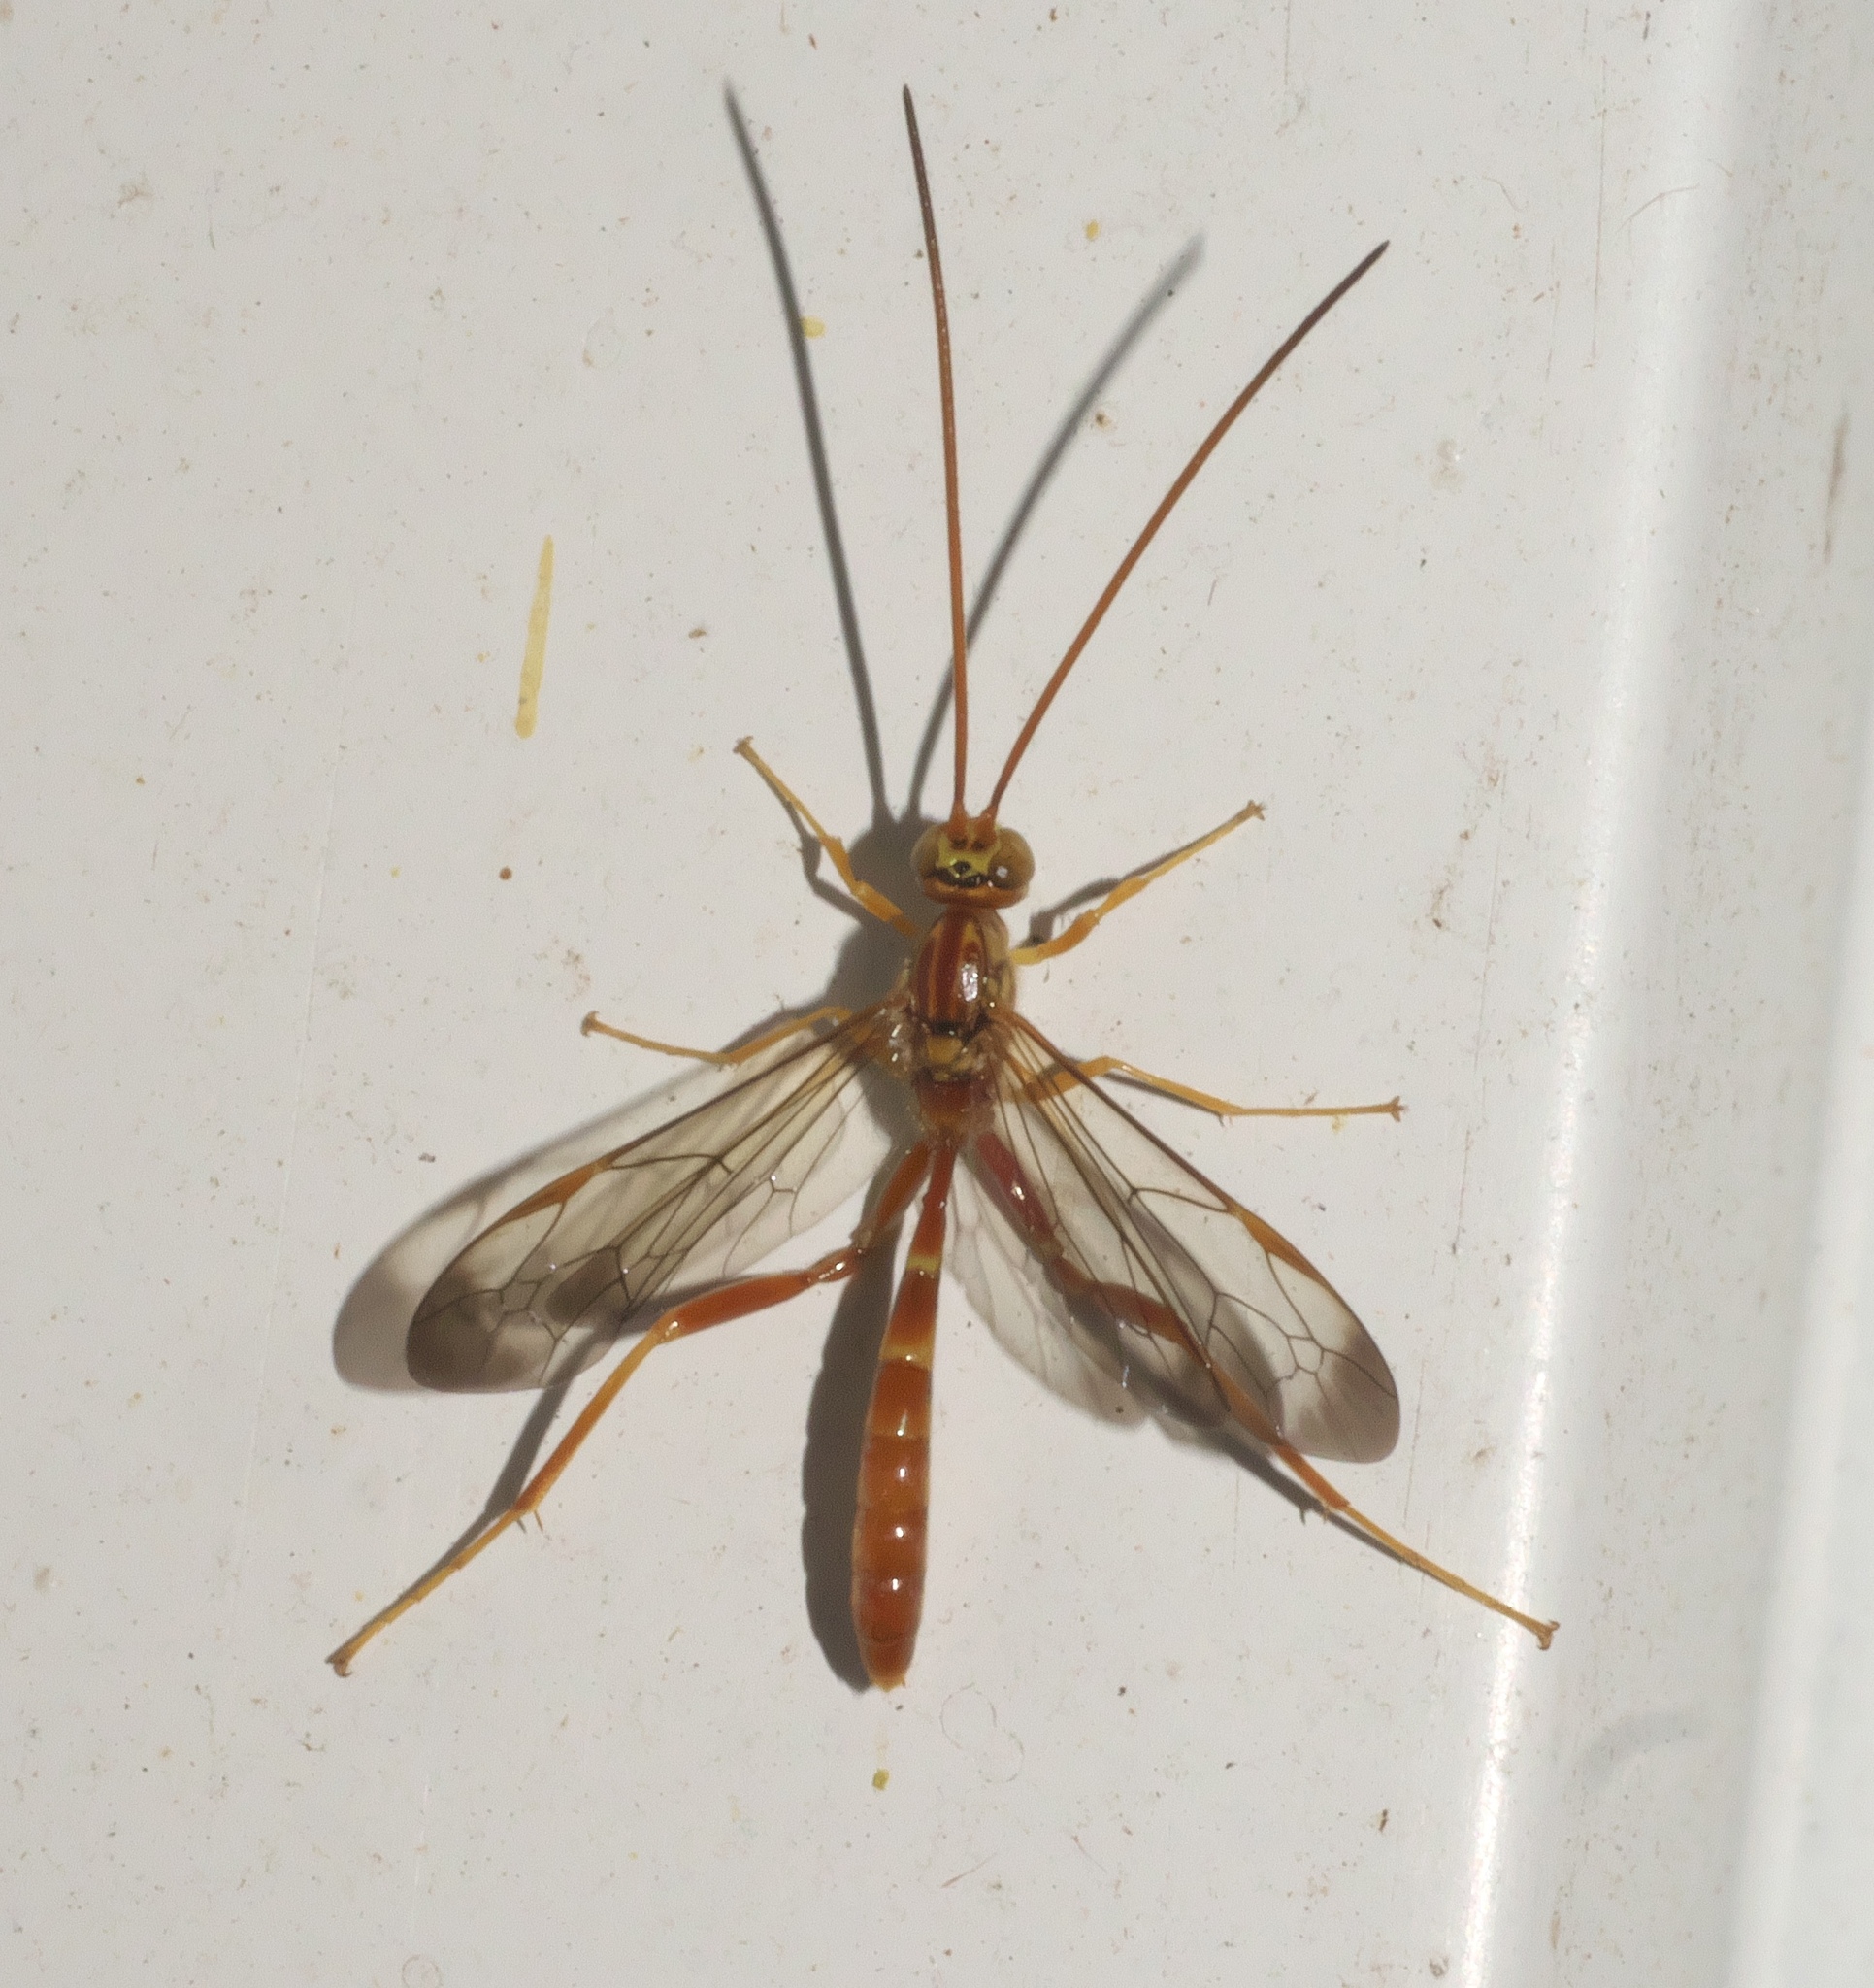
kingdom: Animalia
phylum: Arthropoda
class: Insecta
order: Hymenoptera
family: Ichneumonidae
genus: Labena
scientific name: Labena grallator
